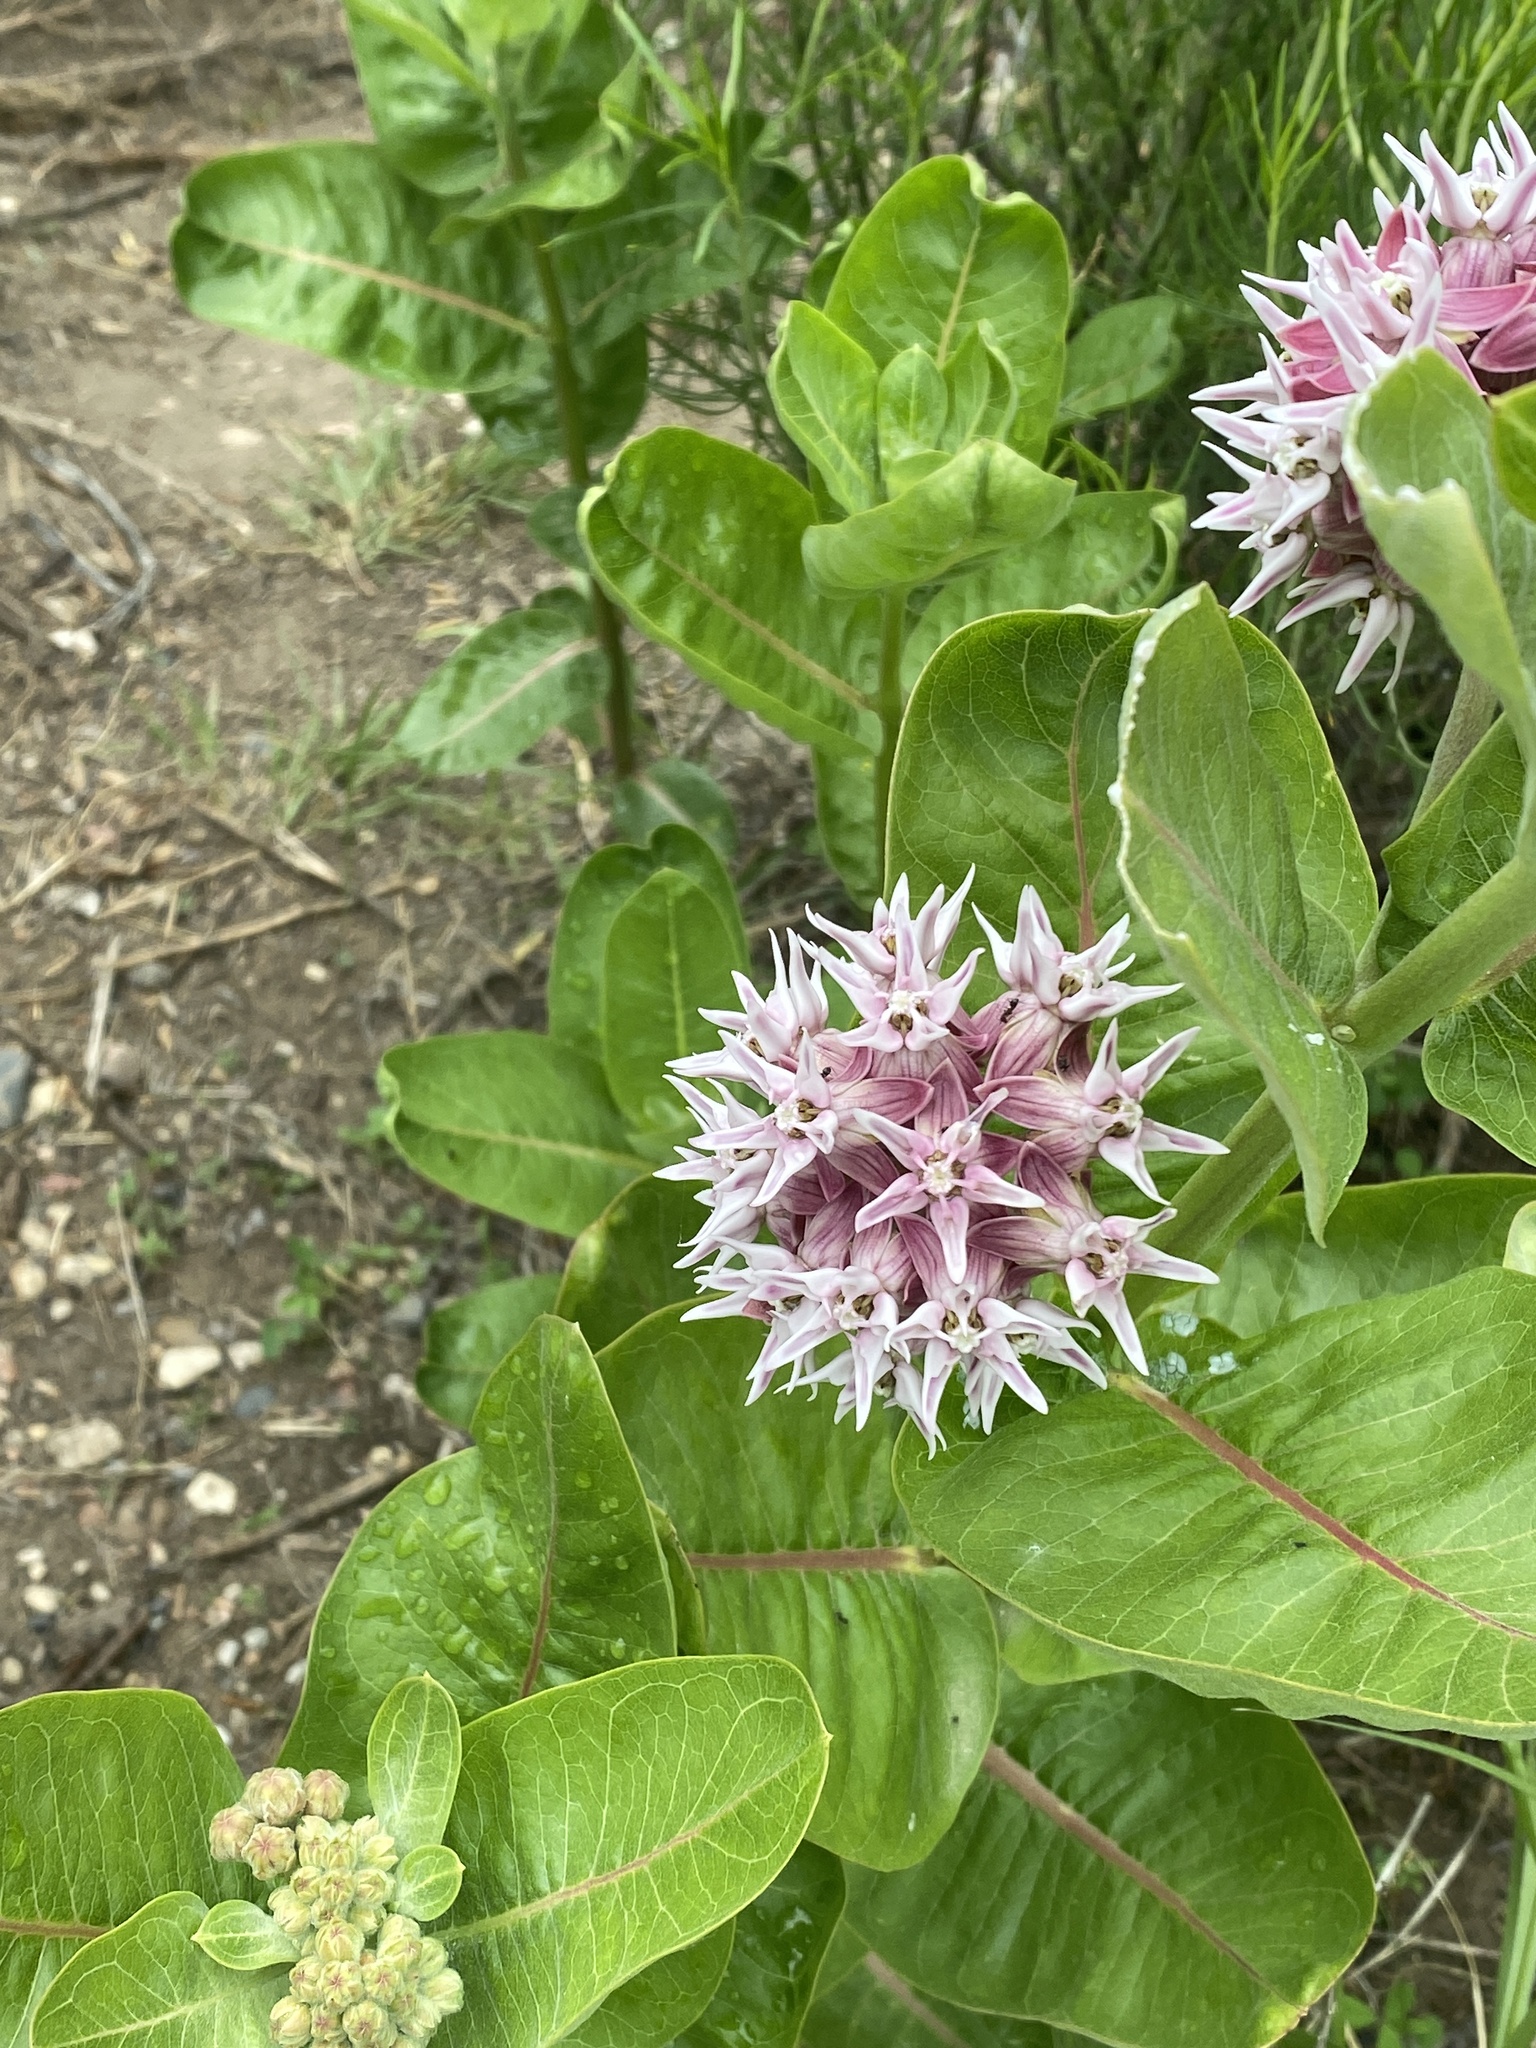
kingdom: Plantae
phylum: Tracheophyta
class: Magnoliopsida
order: Gentianales
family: Apocynaceae
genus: Asclepias
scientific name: Asclepias speciosa
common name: Showy milkweed
